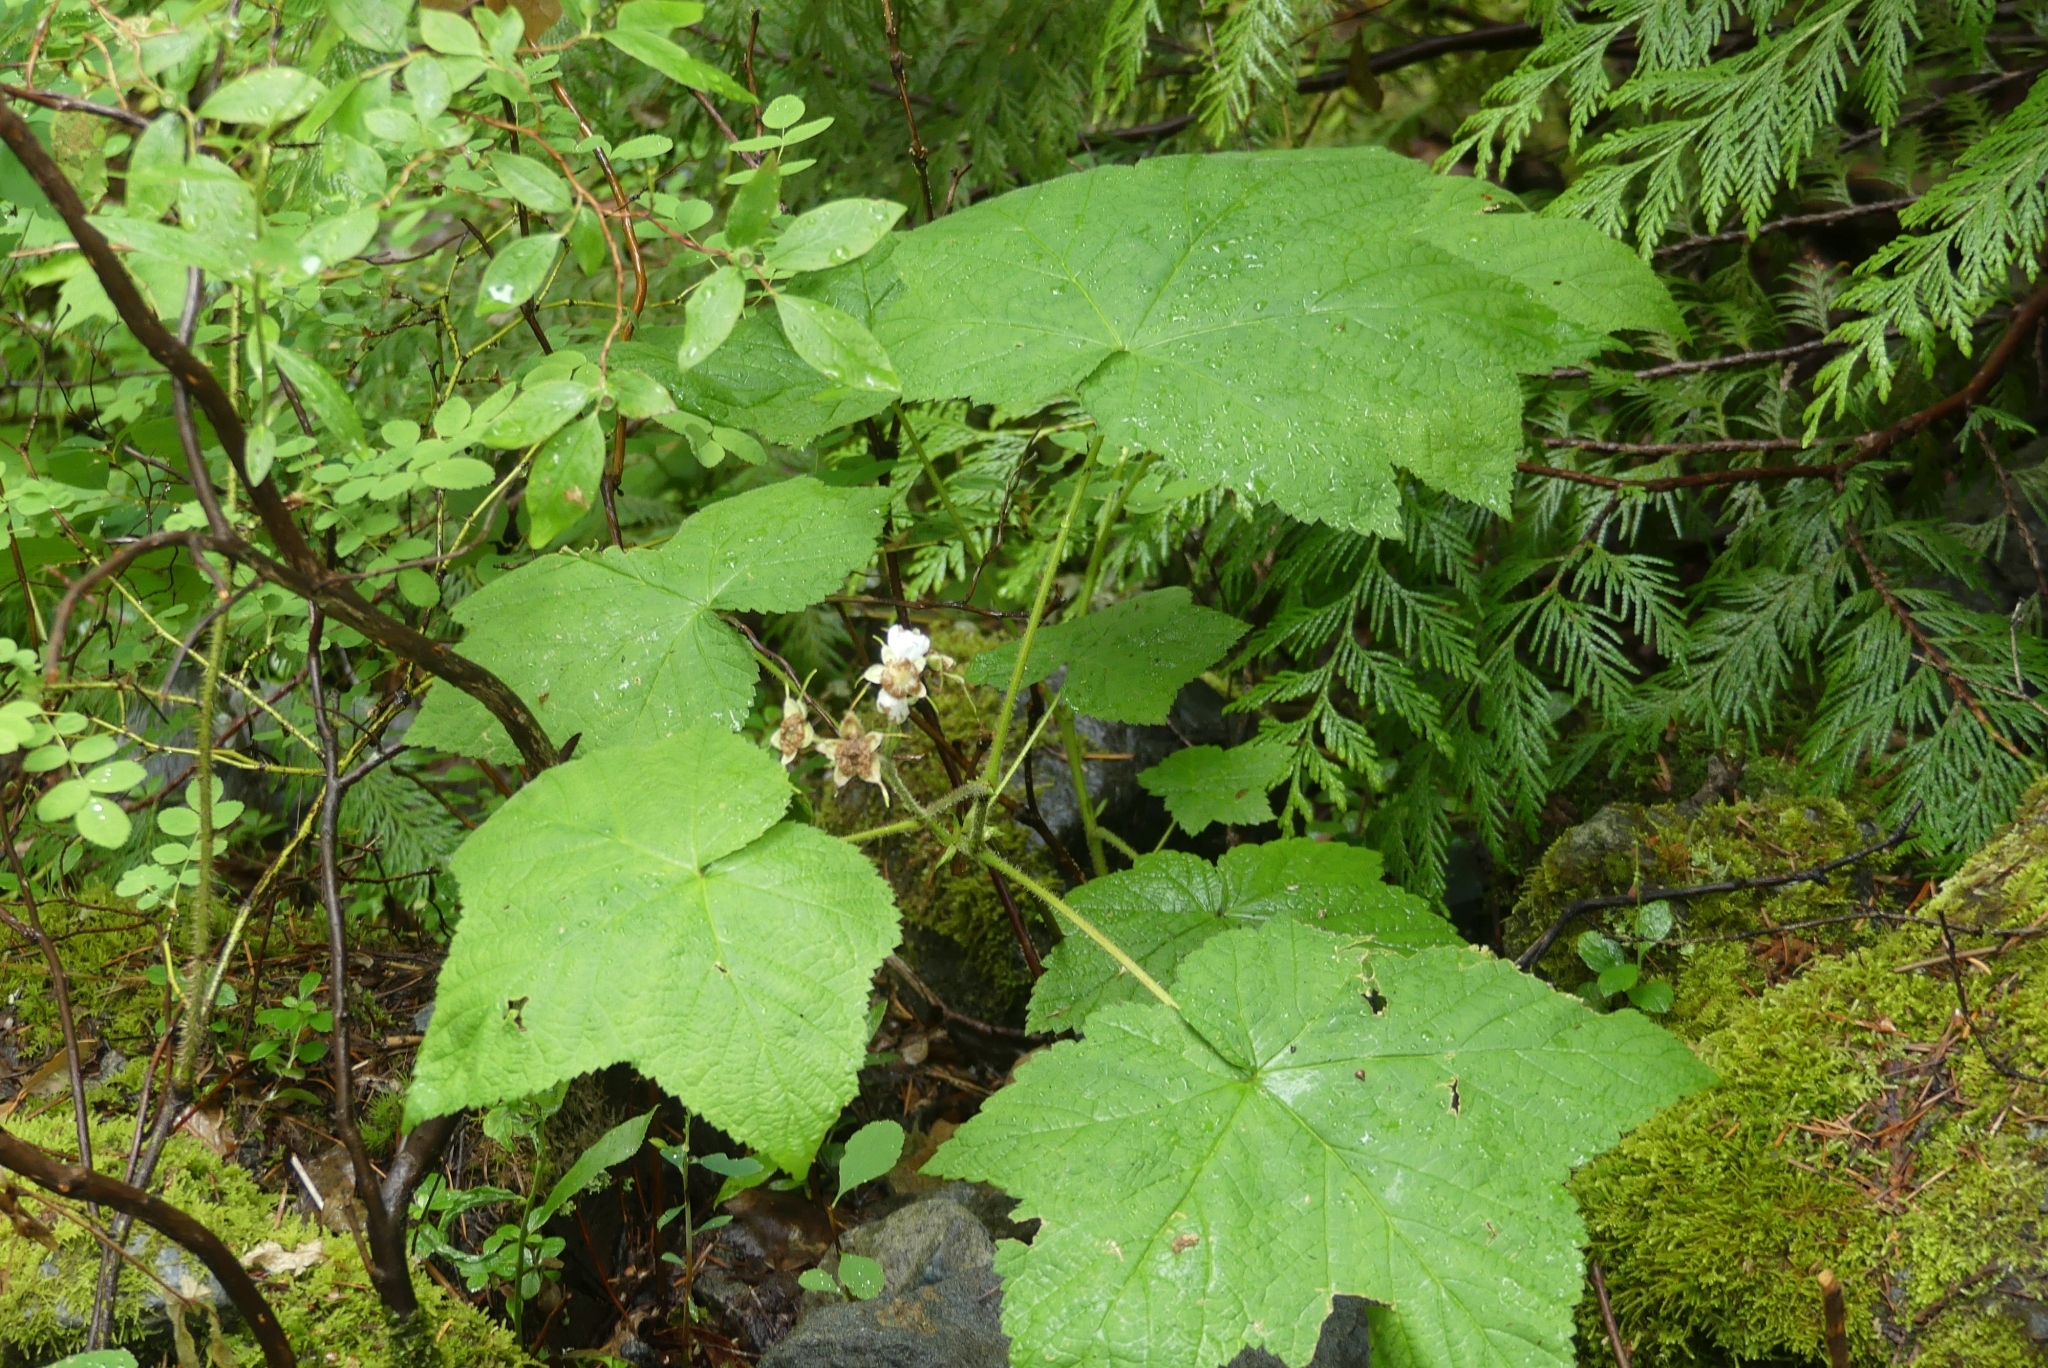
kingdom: Plantae
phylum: Tracheophyta
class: Magnoliopsida
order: Rosales
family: Rosaceae
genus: Rubus
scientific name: Rubus parviflorus
